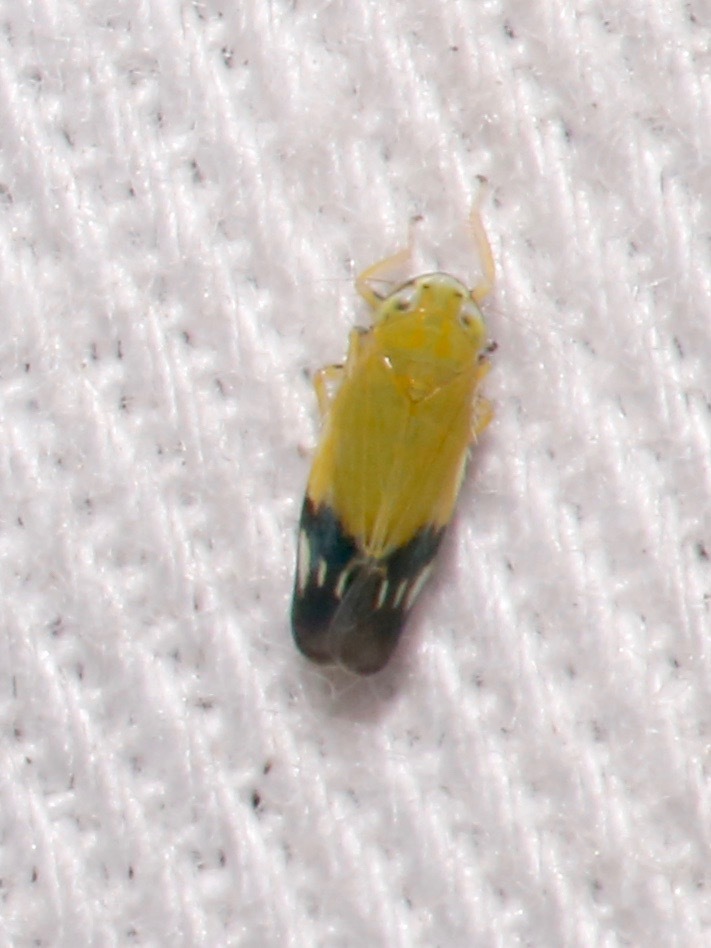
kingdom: Animalia
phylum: Arthropoda
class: Insecta
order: Hemiptera
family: Cicadellidae
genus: Deltanus
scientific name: Deltanus bicolor
